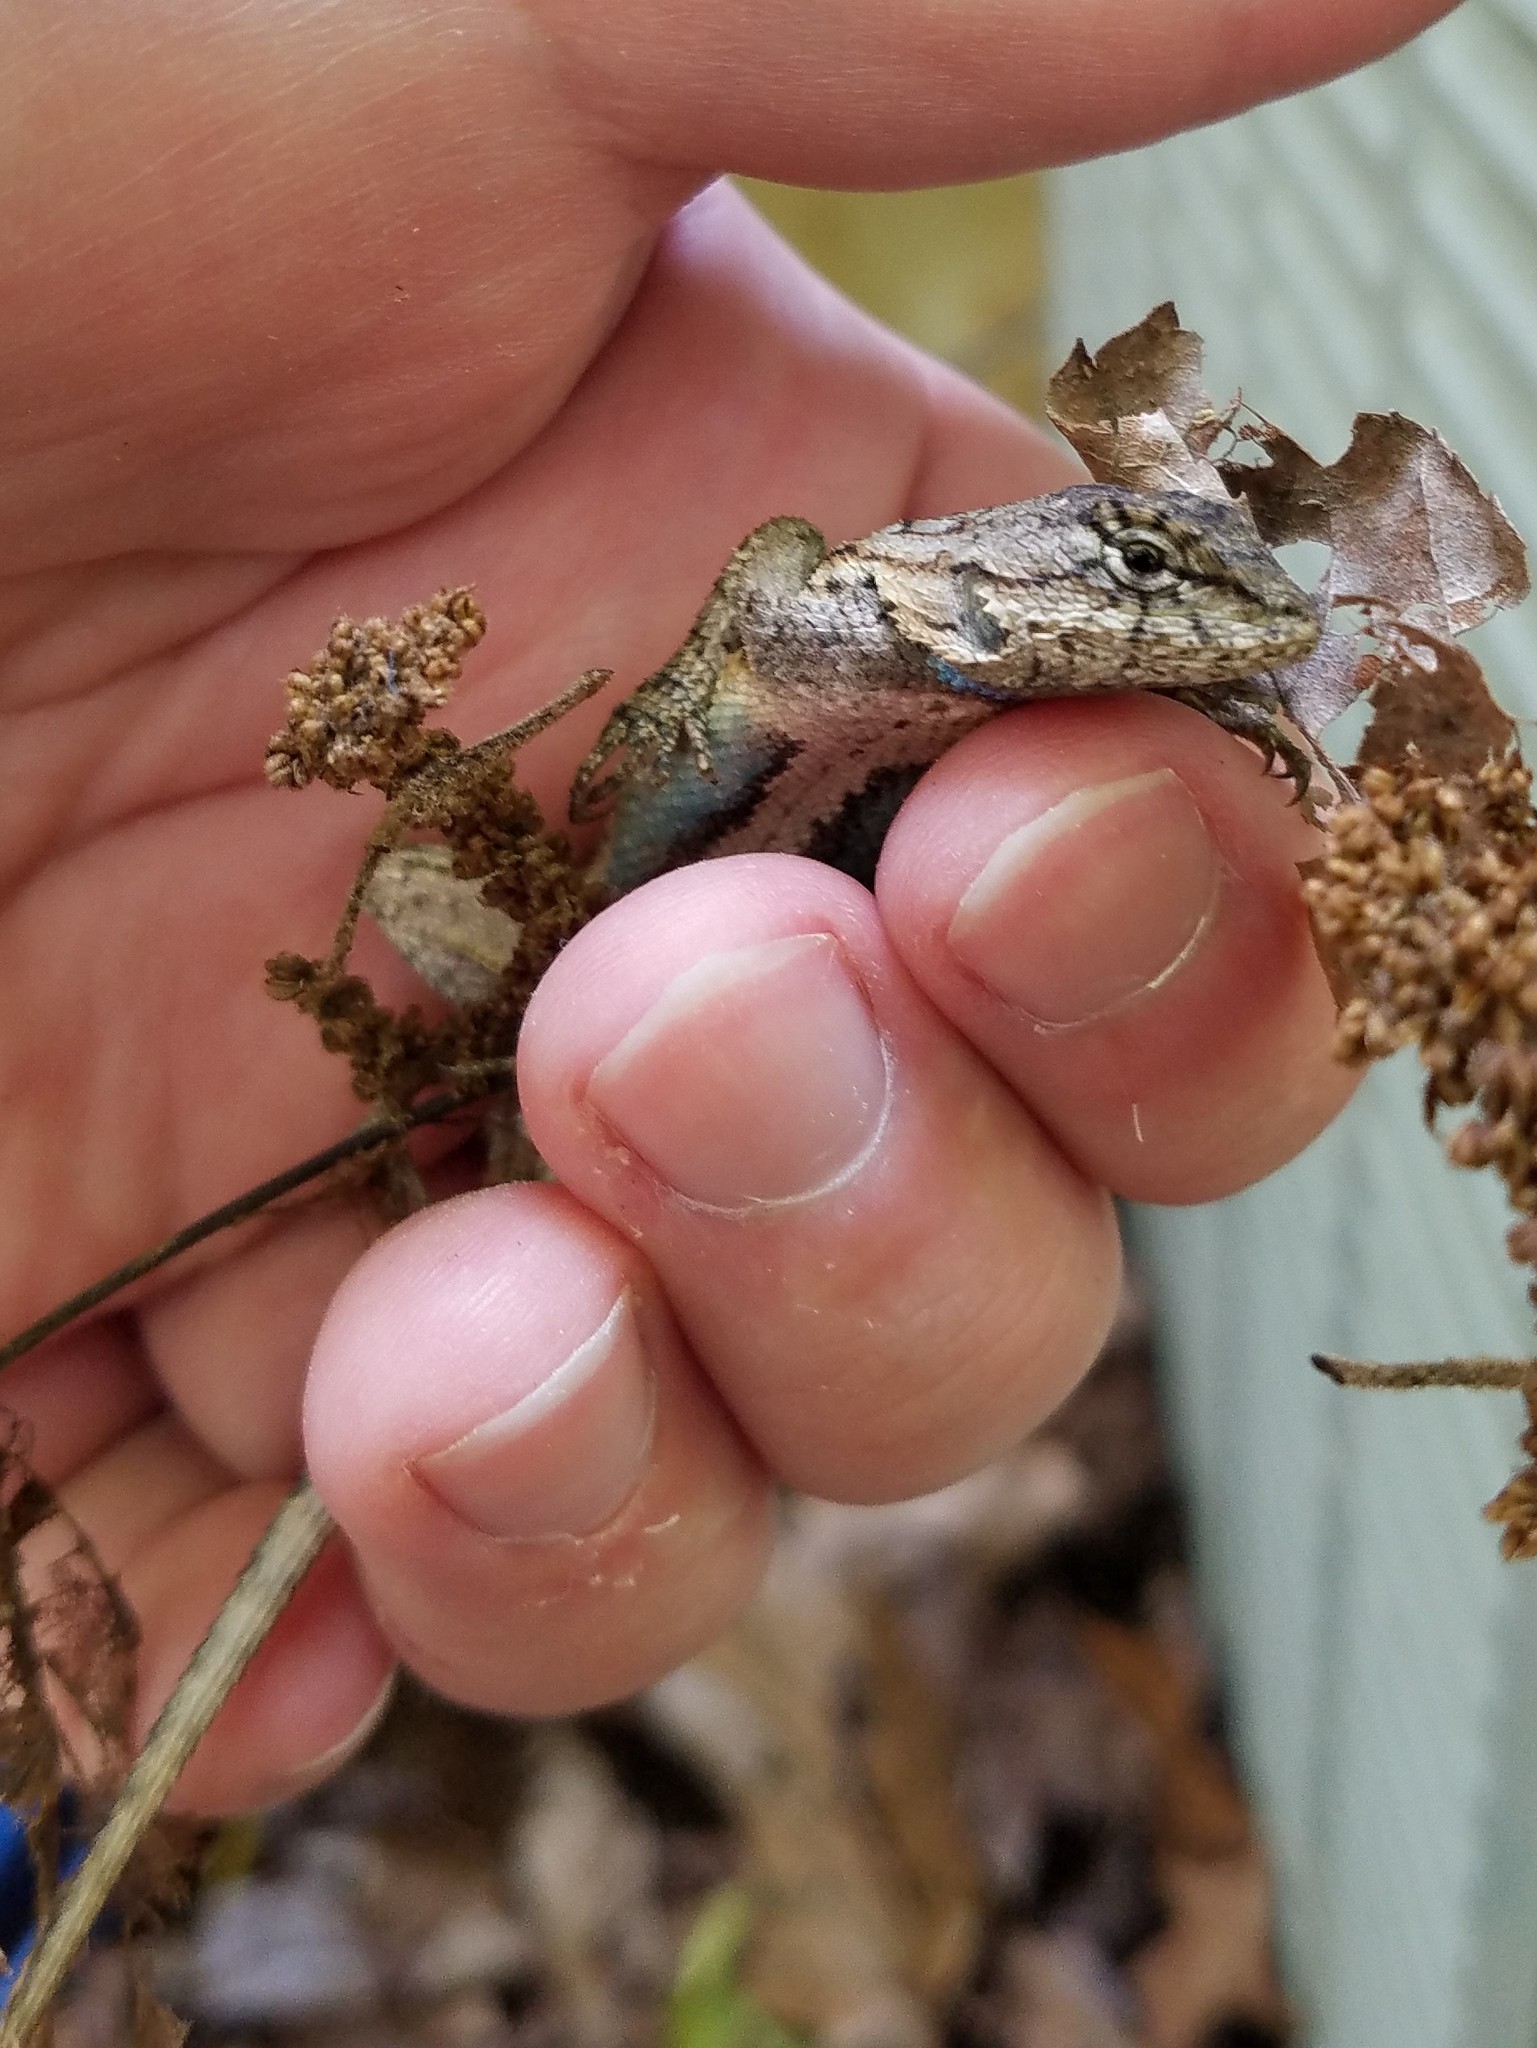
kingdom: Animalia
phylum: Chordata
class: Squamata
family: Phrynosomatidae
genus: Sceloporus
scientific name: Sceloporus undulatus
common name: Eastern fence lizard
